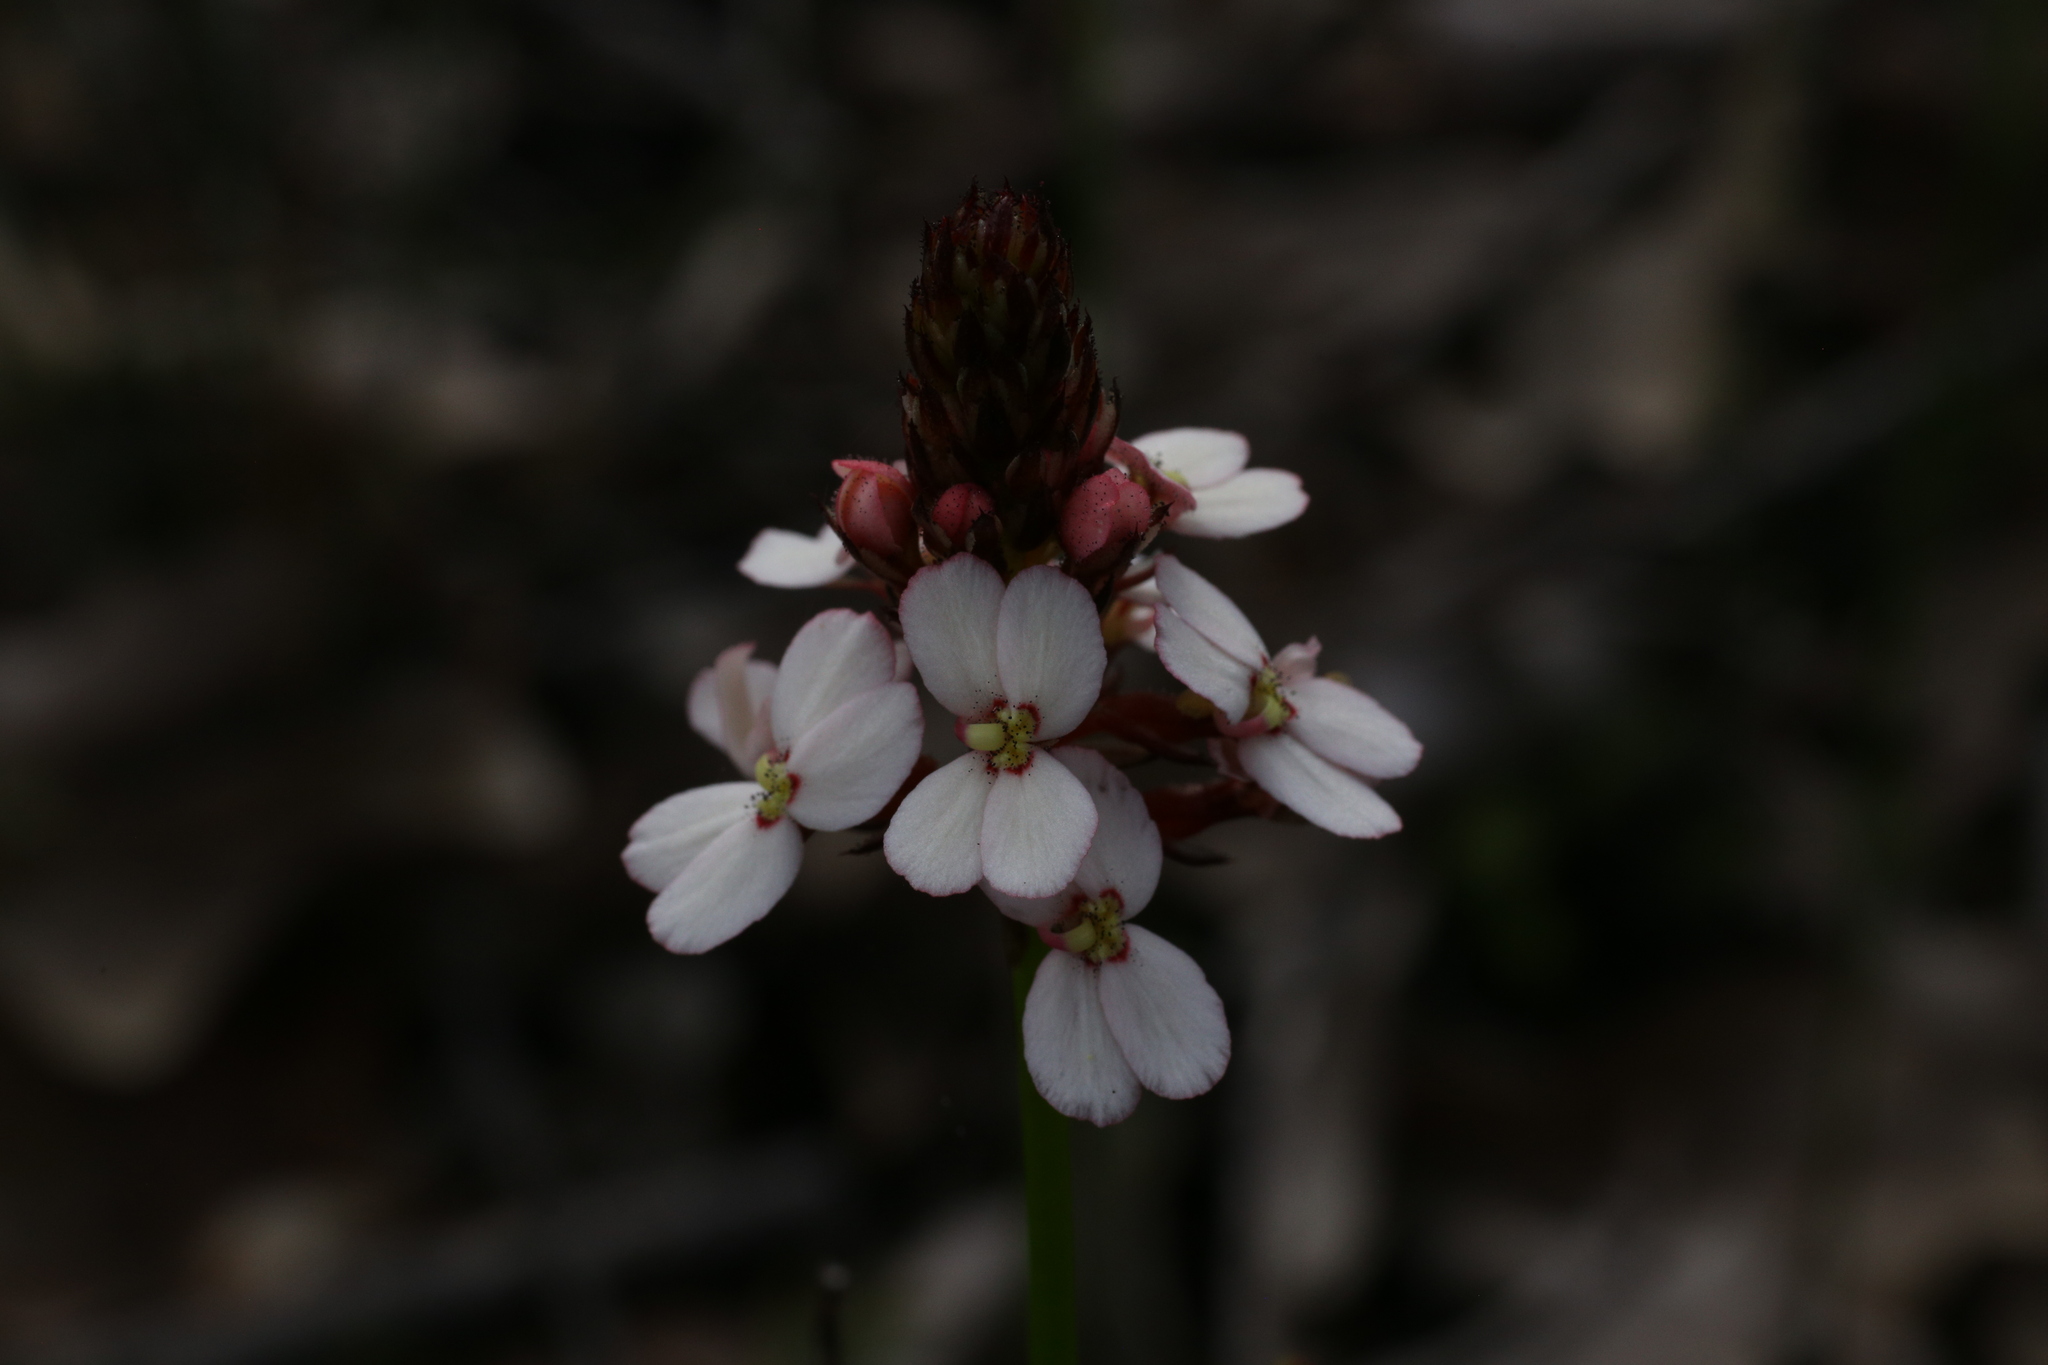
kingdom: Plantae
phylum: Tracheophyta
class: Magnoliopsida
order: Asterales
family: Stylidiaceae
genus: Stylidium
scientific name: Stylidium scariosum
